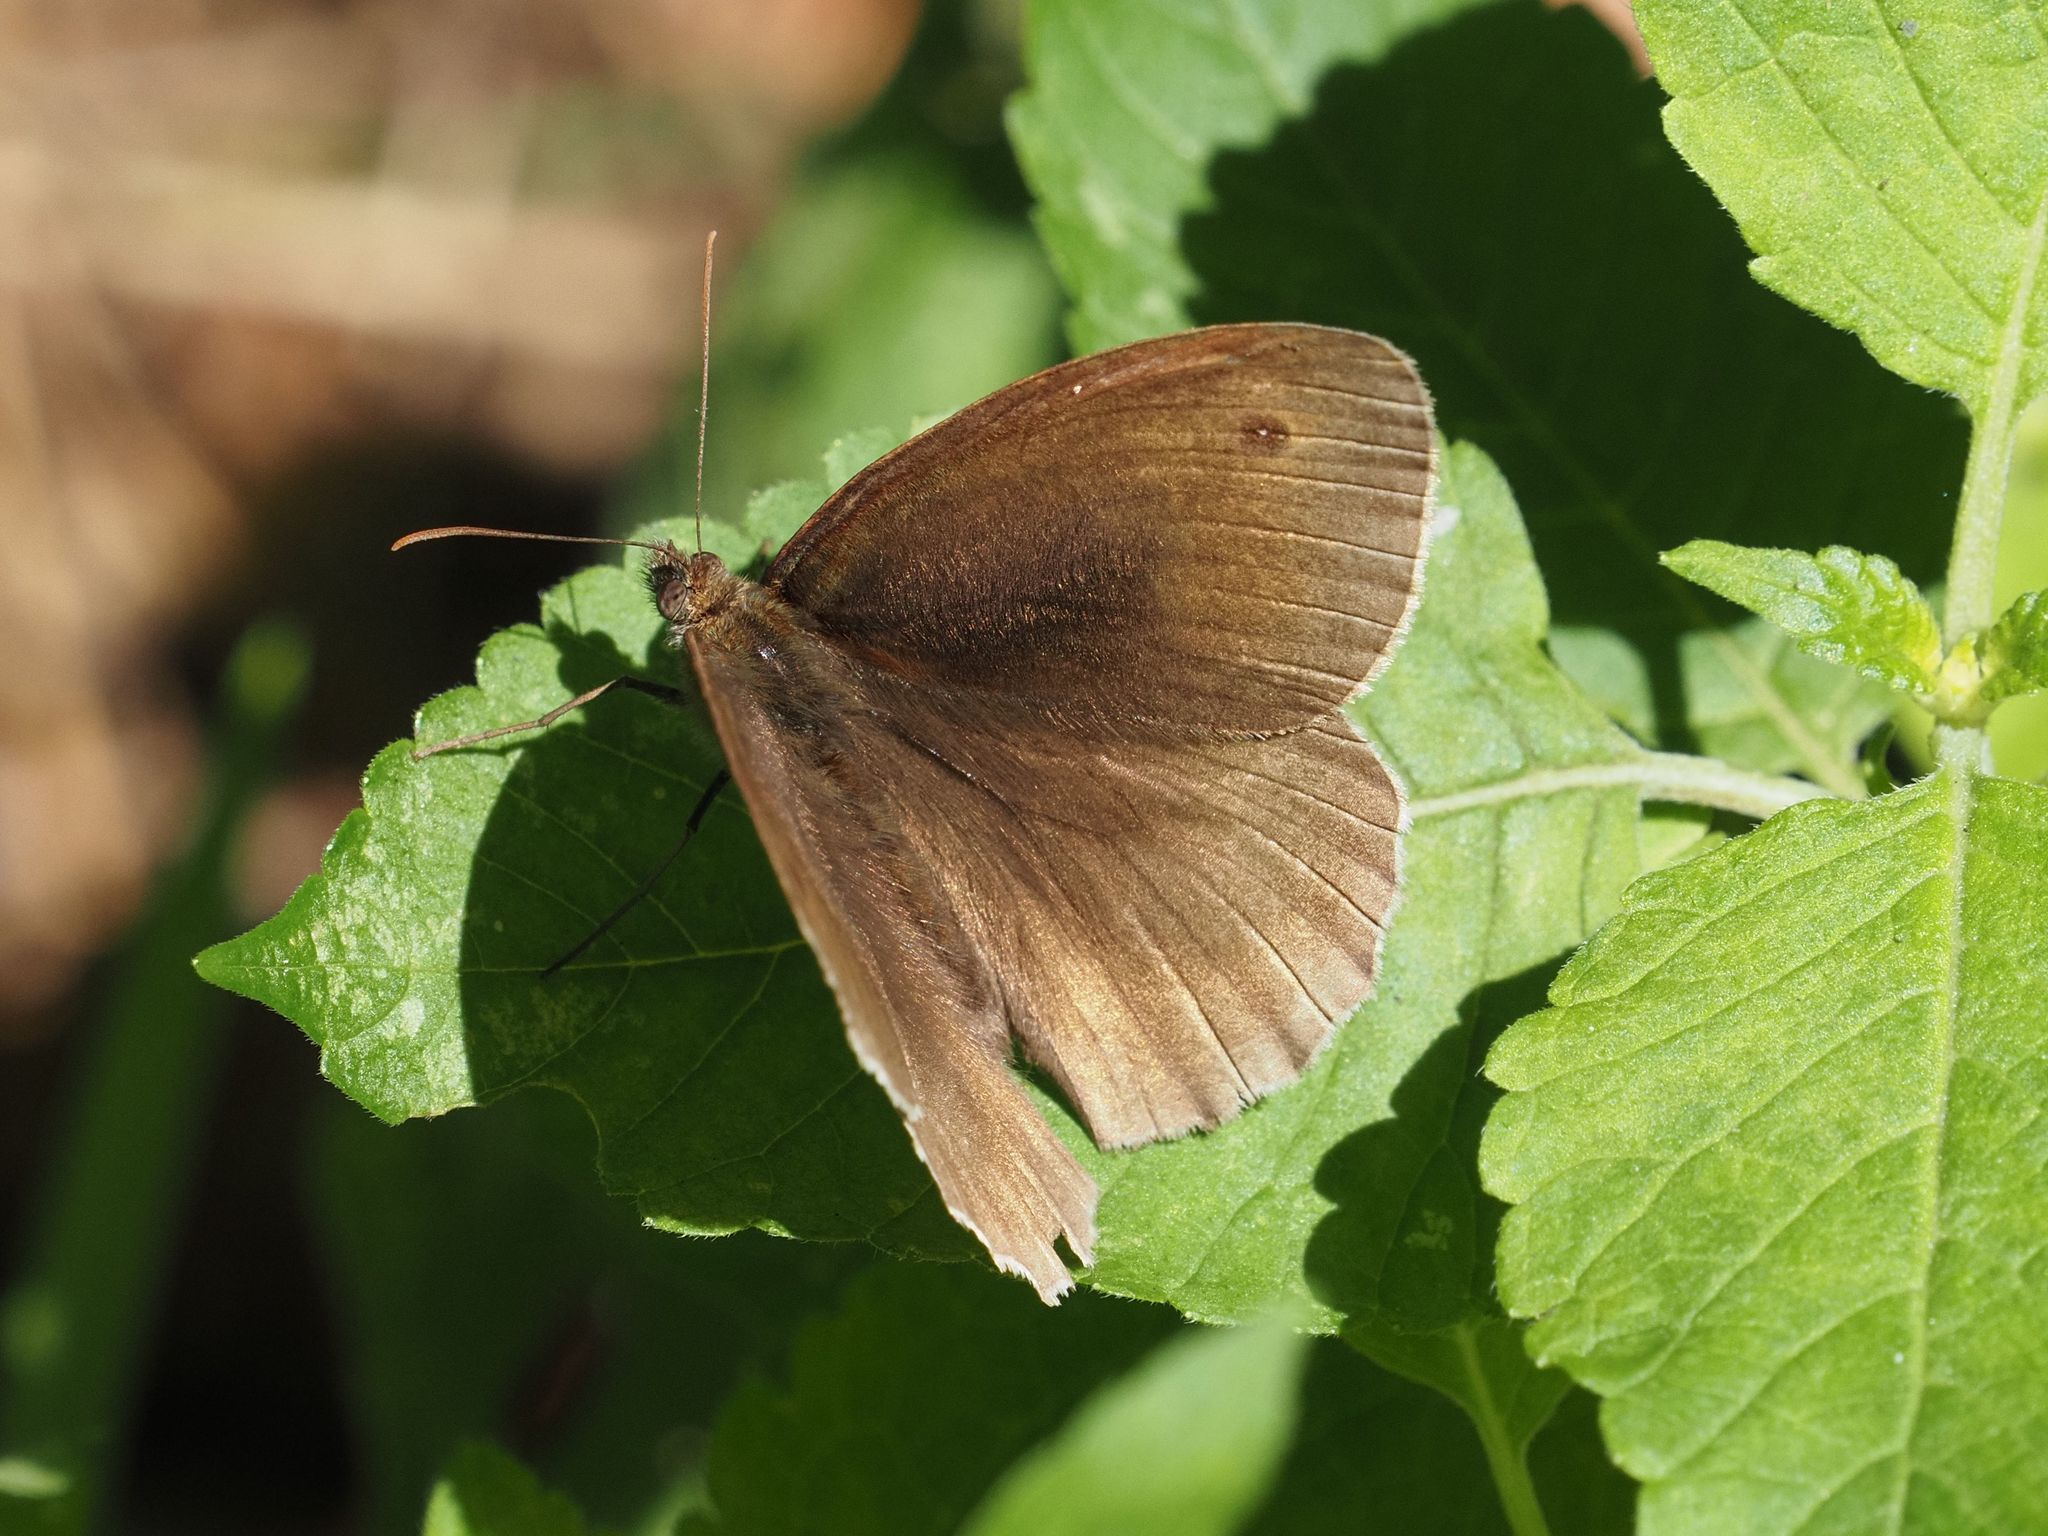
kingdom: Animalia
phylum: Arthropoda
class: Insecta
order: Lepidoptera
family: Nymphalidae
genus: Maniola
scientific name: Maniola jurtina
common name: Meadow brown
